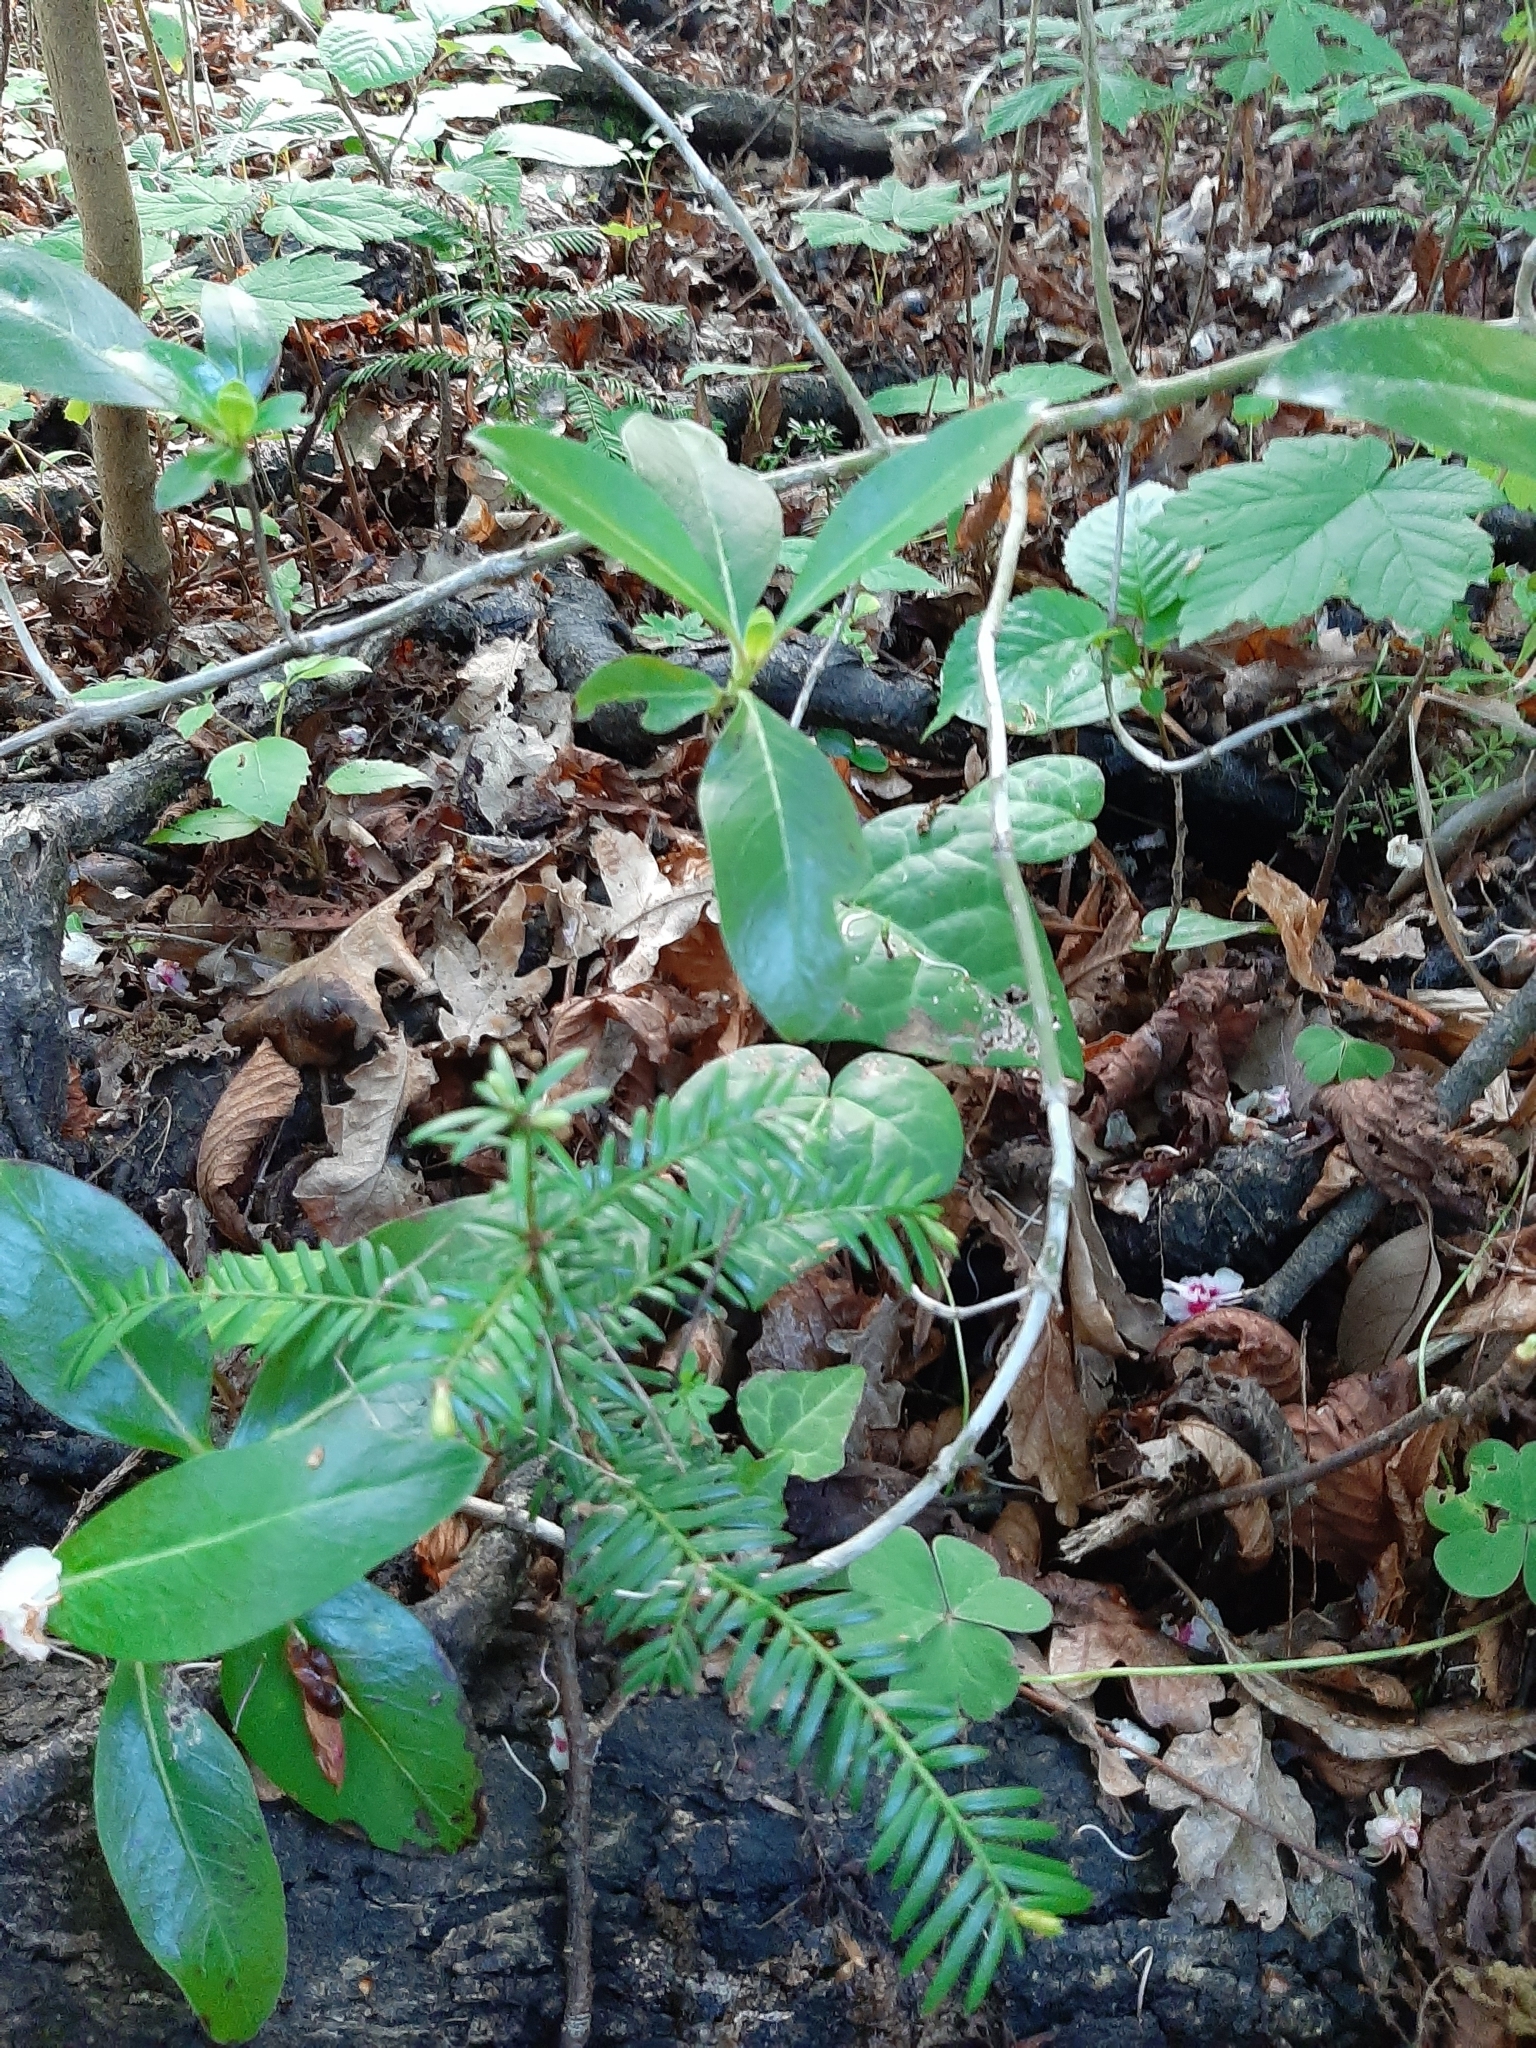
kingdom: Plantae
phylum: Tracheophyta
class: Pinopsida
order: Pinales
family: Taxaceae
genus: Taxus
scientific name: Taxus baccata
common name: Yew
